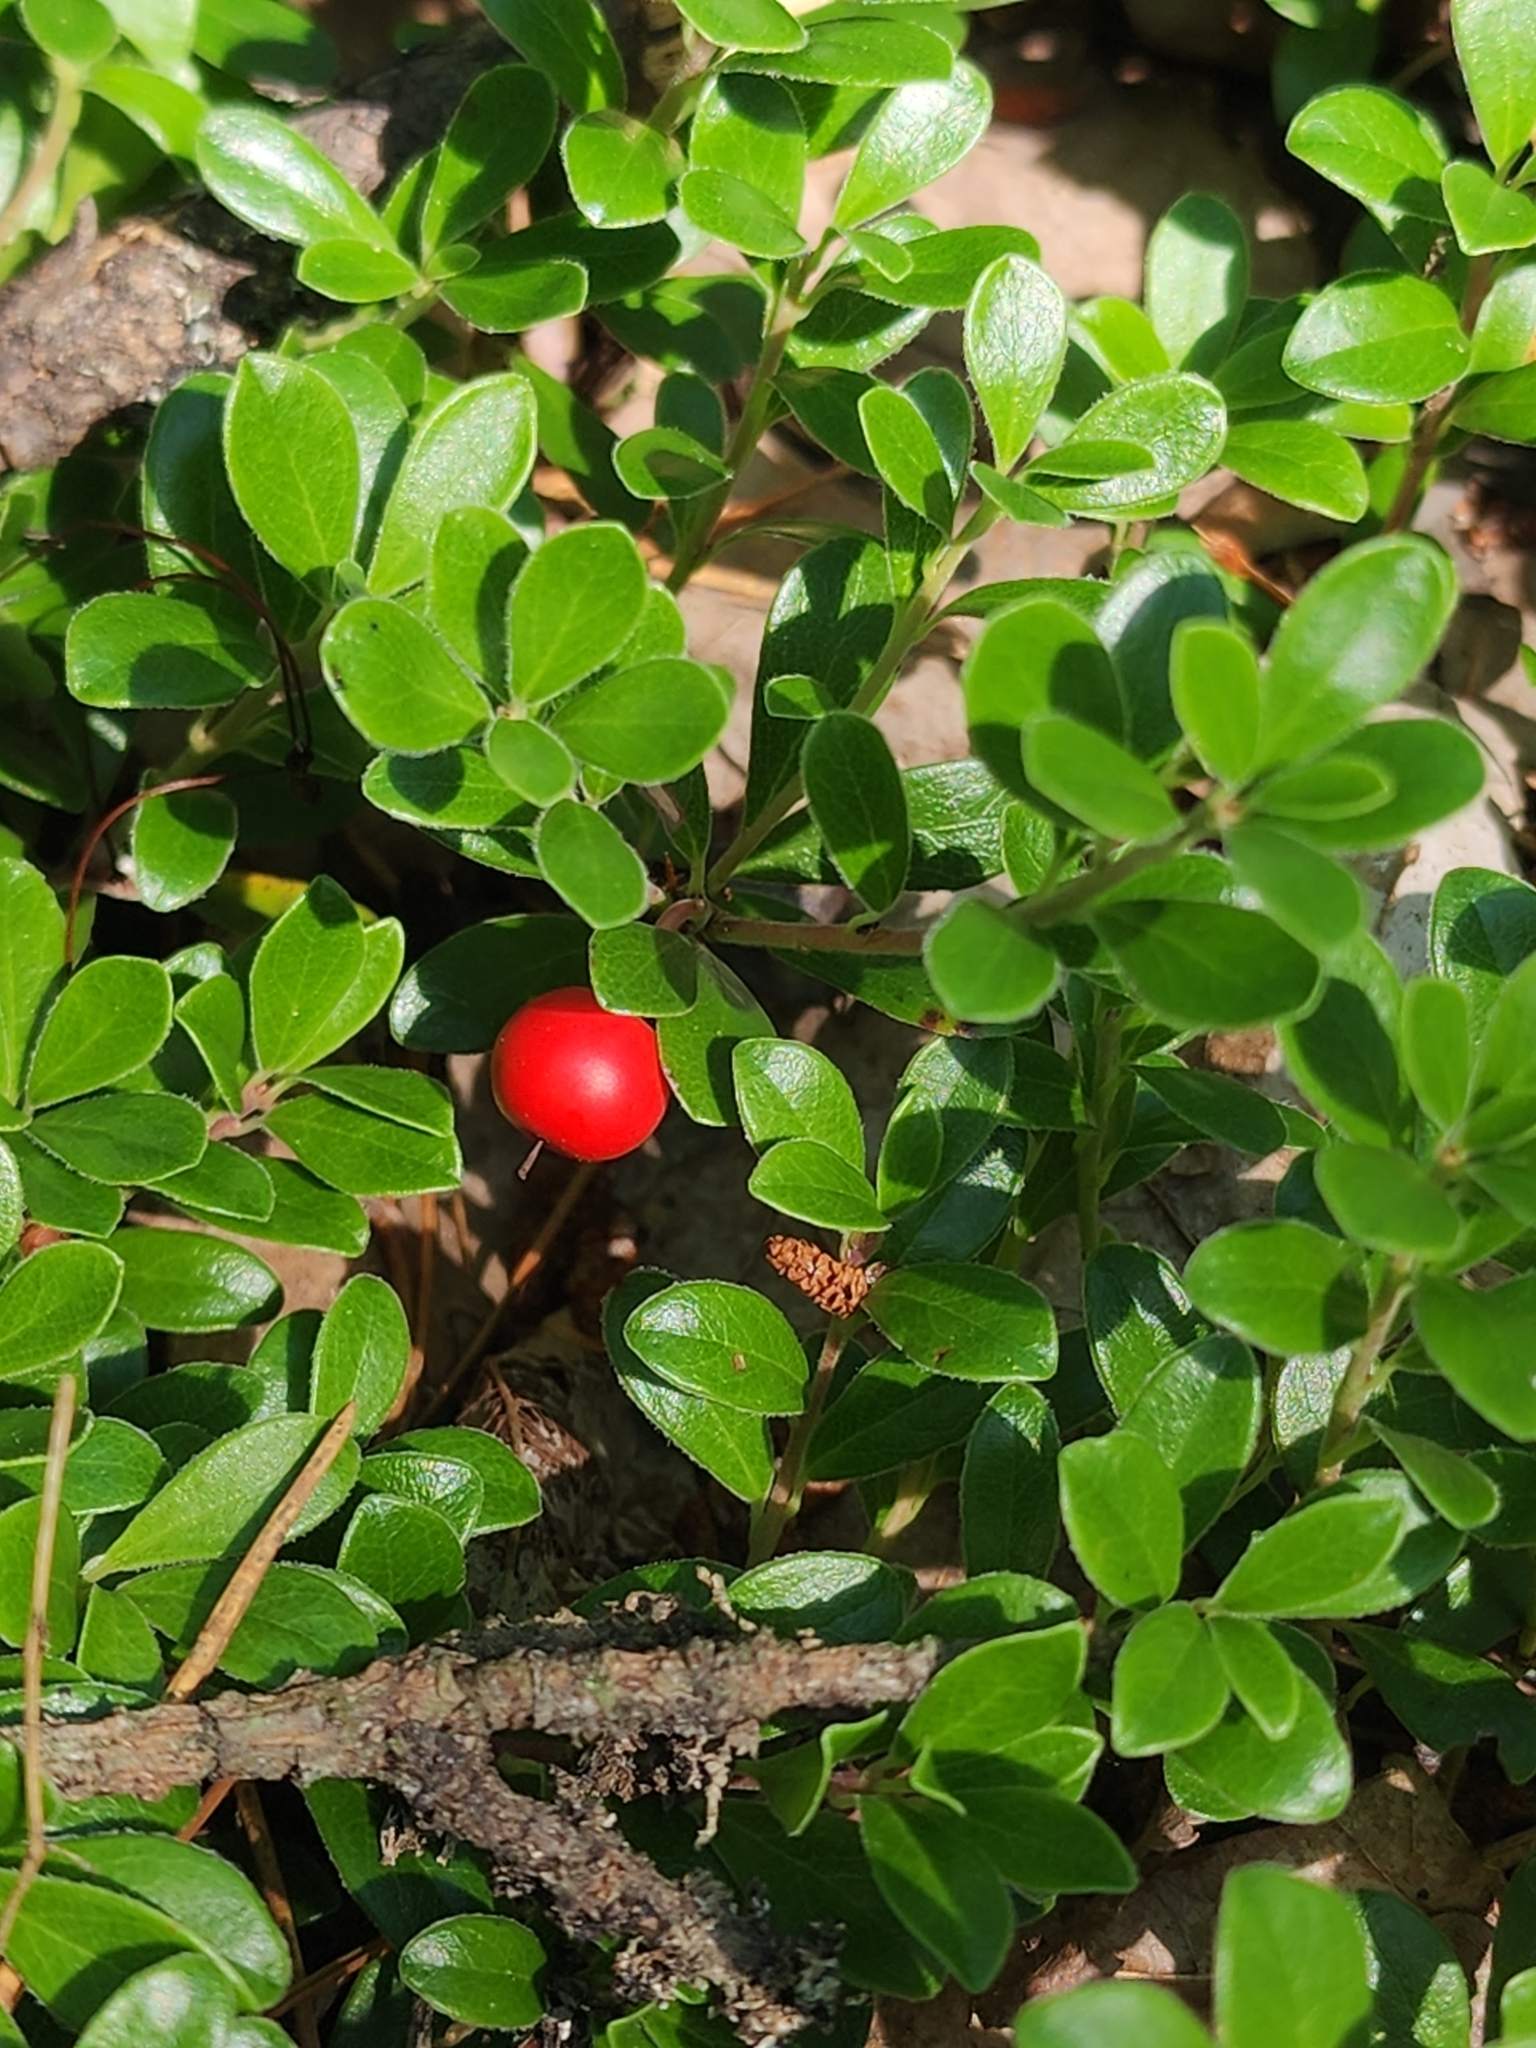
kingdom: Plantae
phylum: Tracheophyta
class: Magnoliopsida
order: Ericales
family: Ericaceae
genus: Arctostaphylos
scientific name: Arctostaphylos uva-ursi
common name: Bearberry
